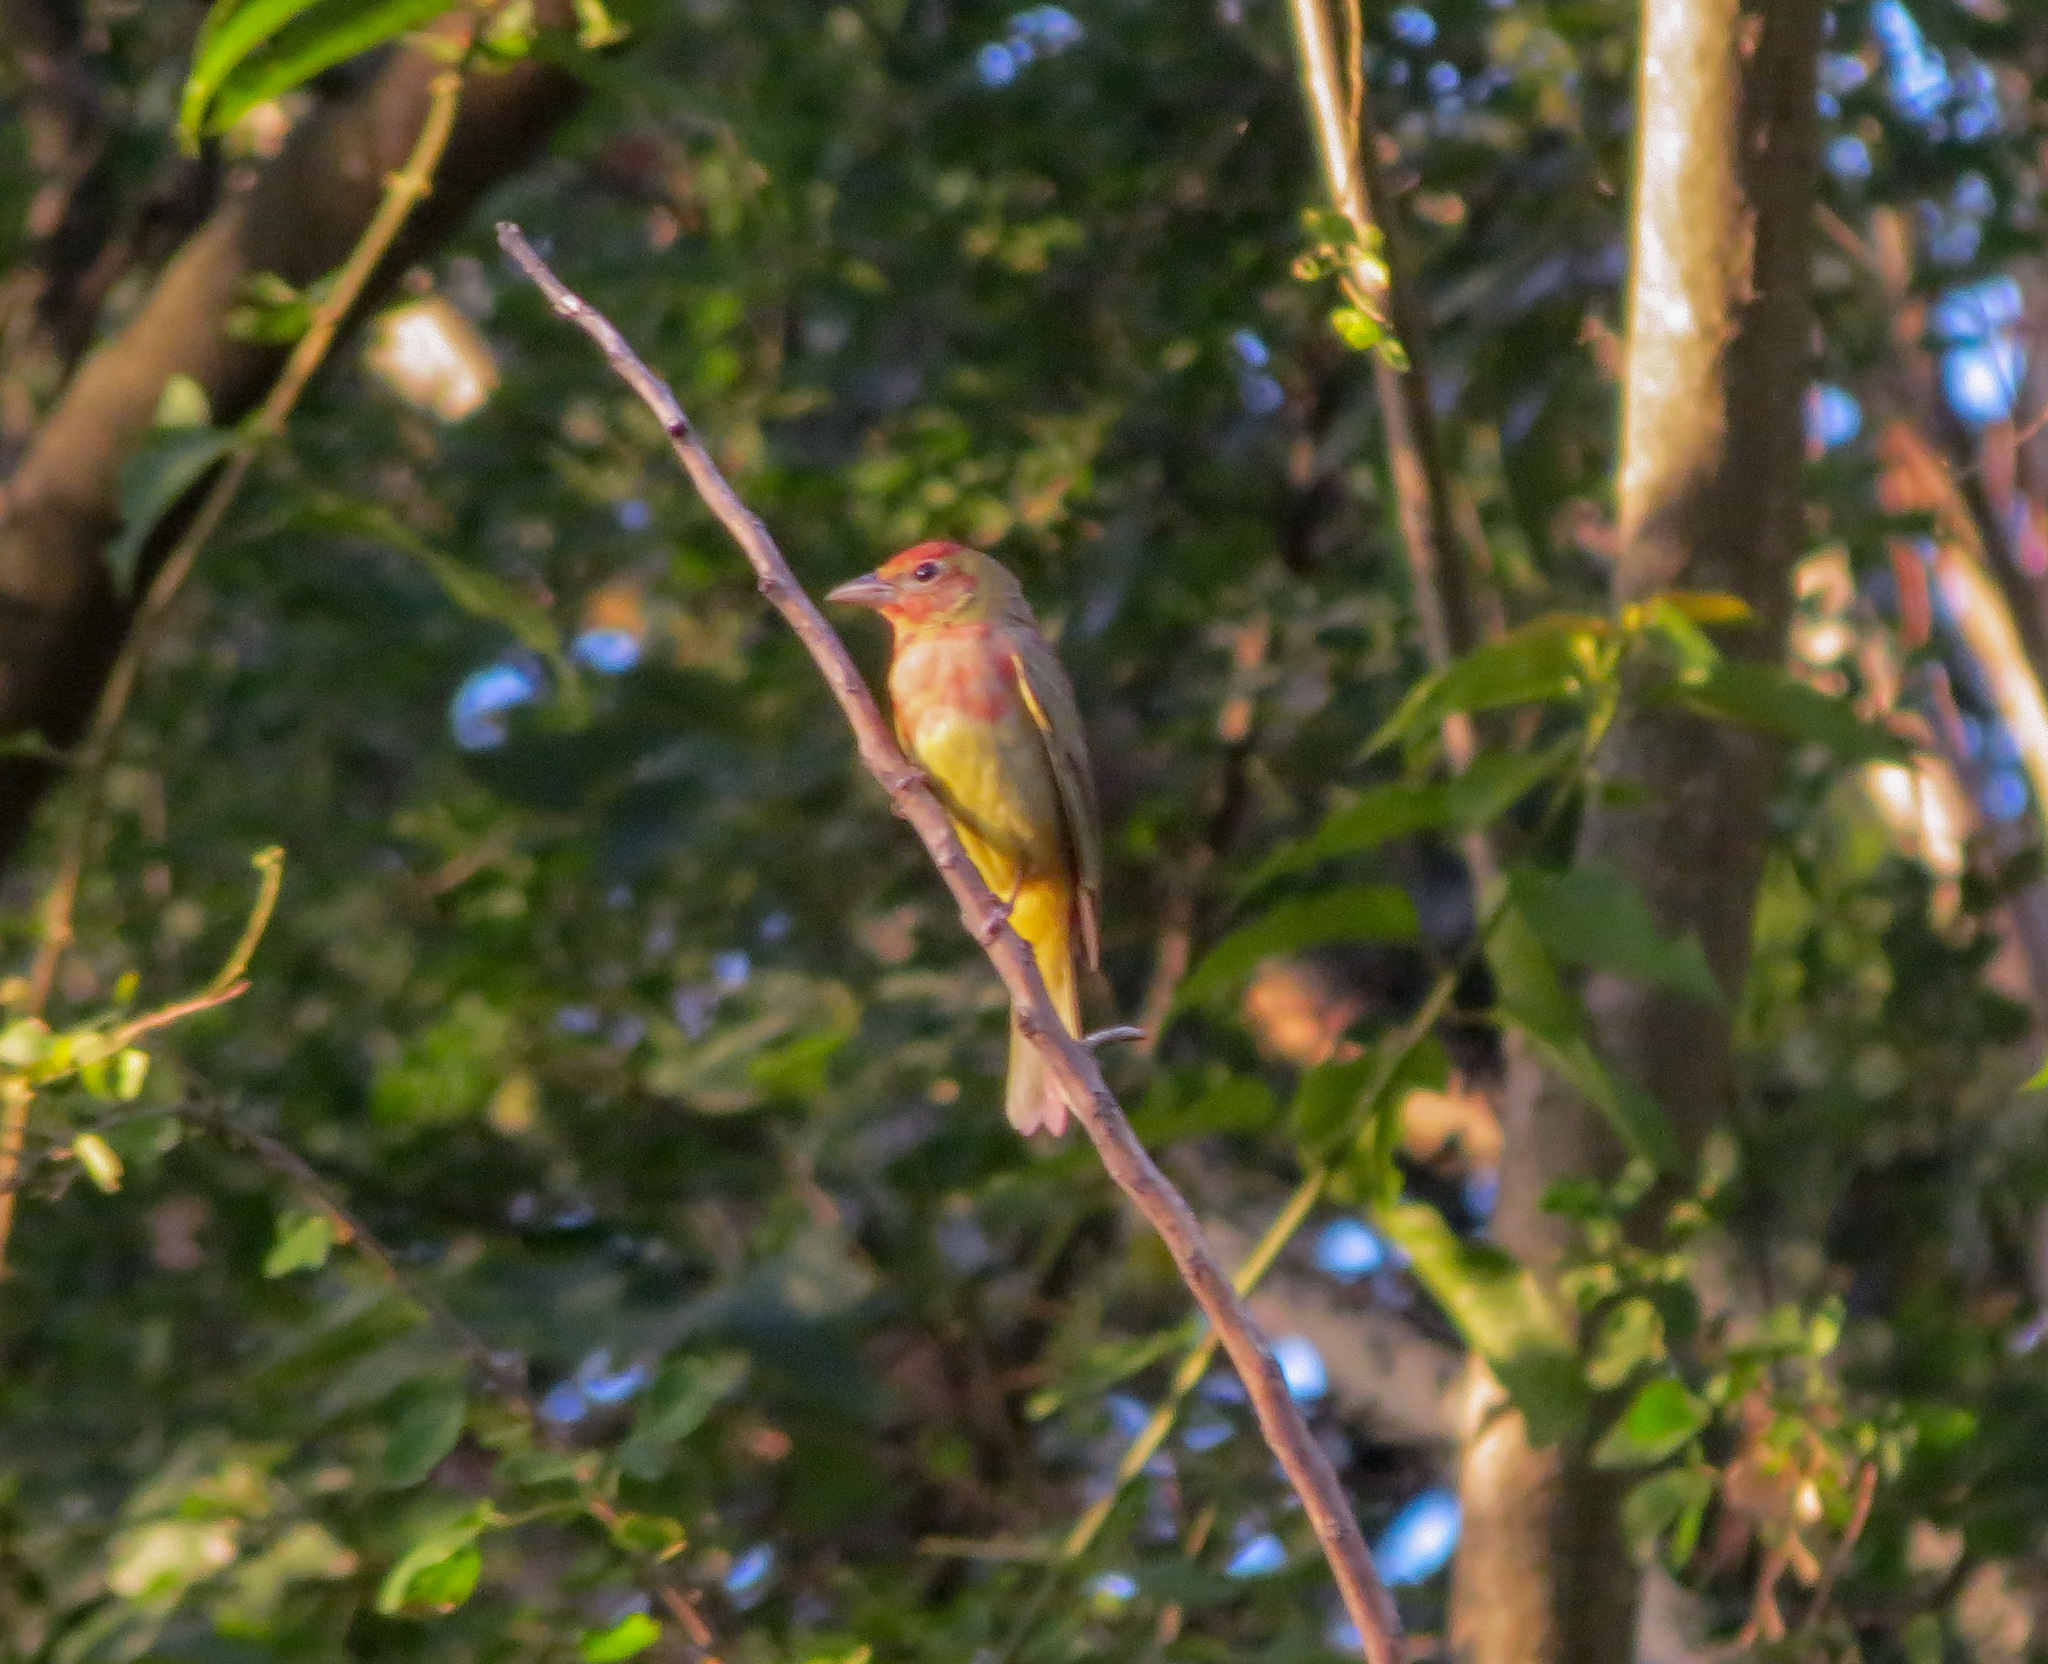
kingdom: Animalia
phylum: Chordata
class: Aves
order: Passeriformes
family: Cardinalidae
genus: Piranga
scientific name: Piranga rubra
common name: Summer tanager
